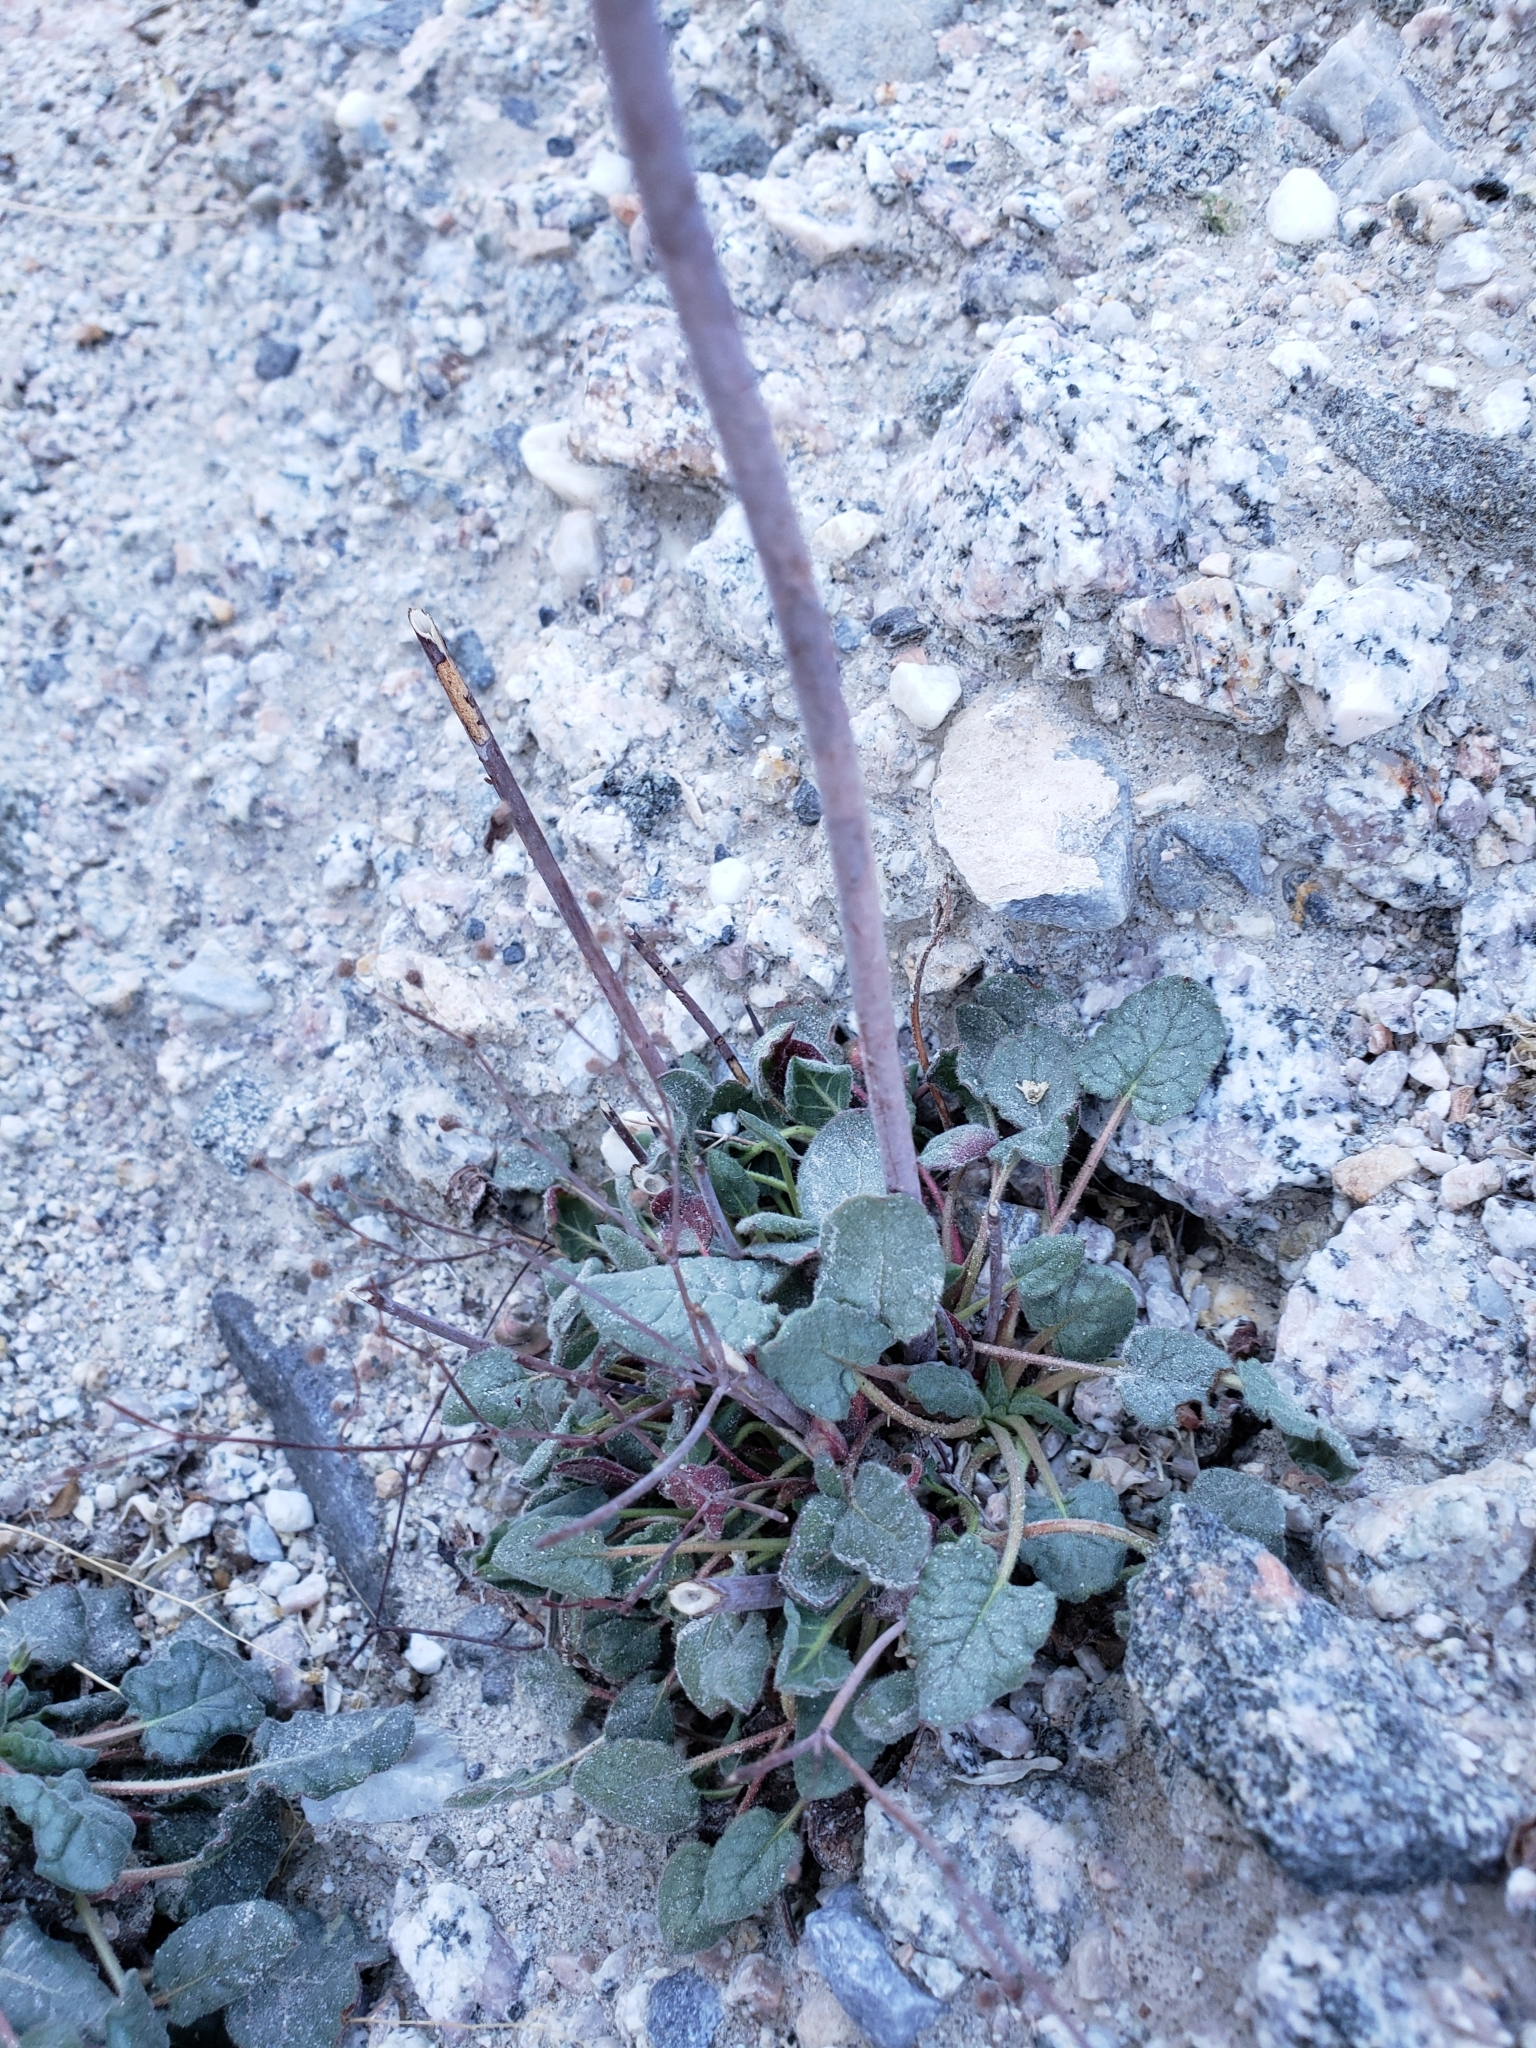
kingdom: Plantae
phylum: Tracheophyta
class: Magnoliopsida
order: Caryophyllales
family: Polygonaceae
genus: Eriogonum
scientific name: Eriogonum inflatum
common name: Desert trumpet
